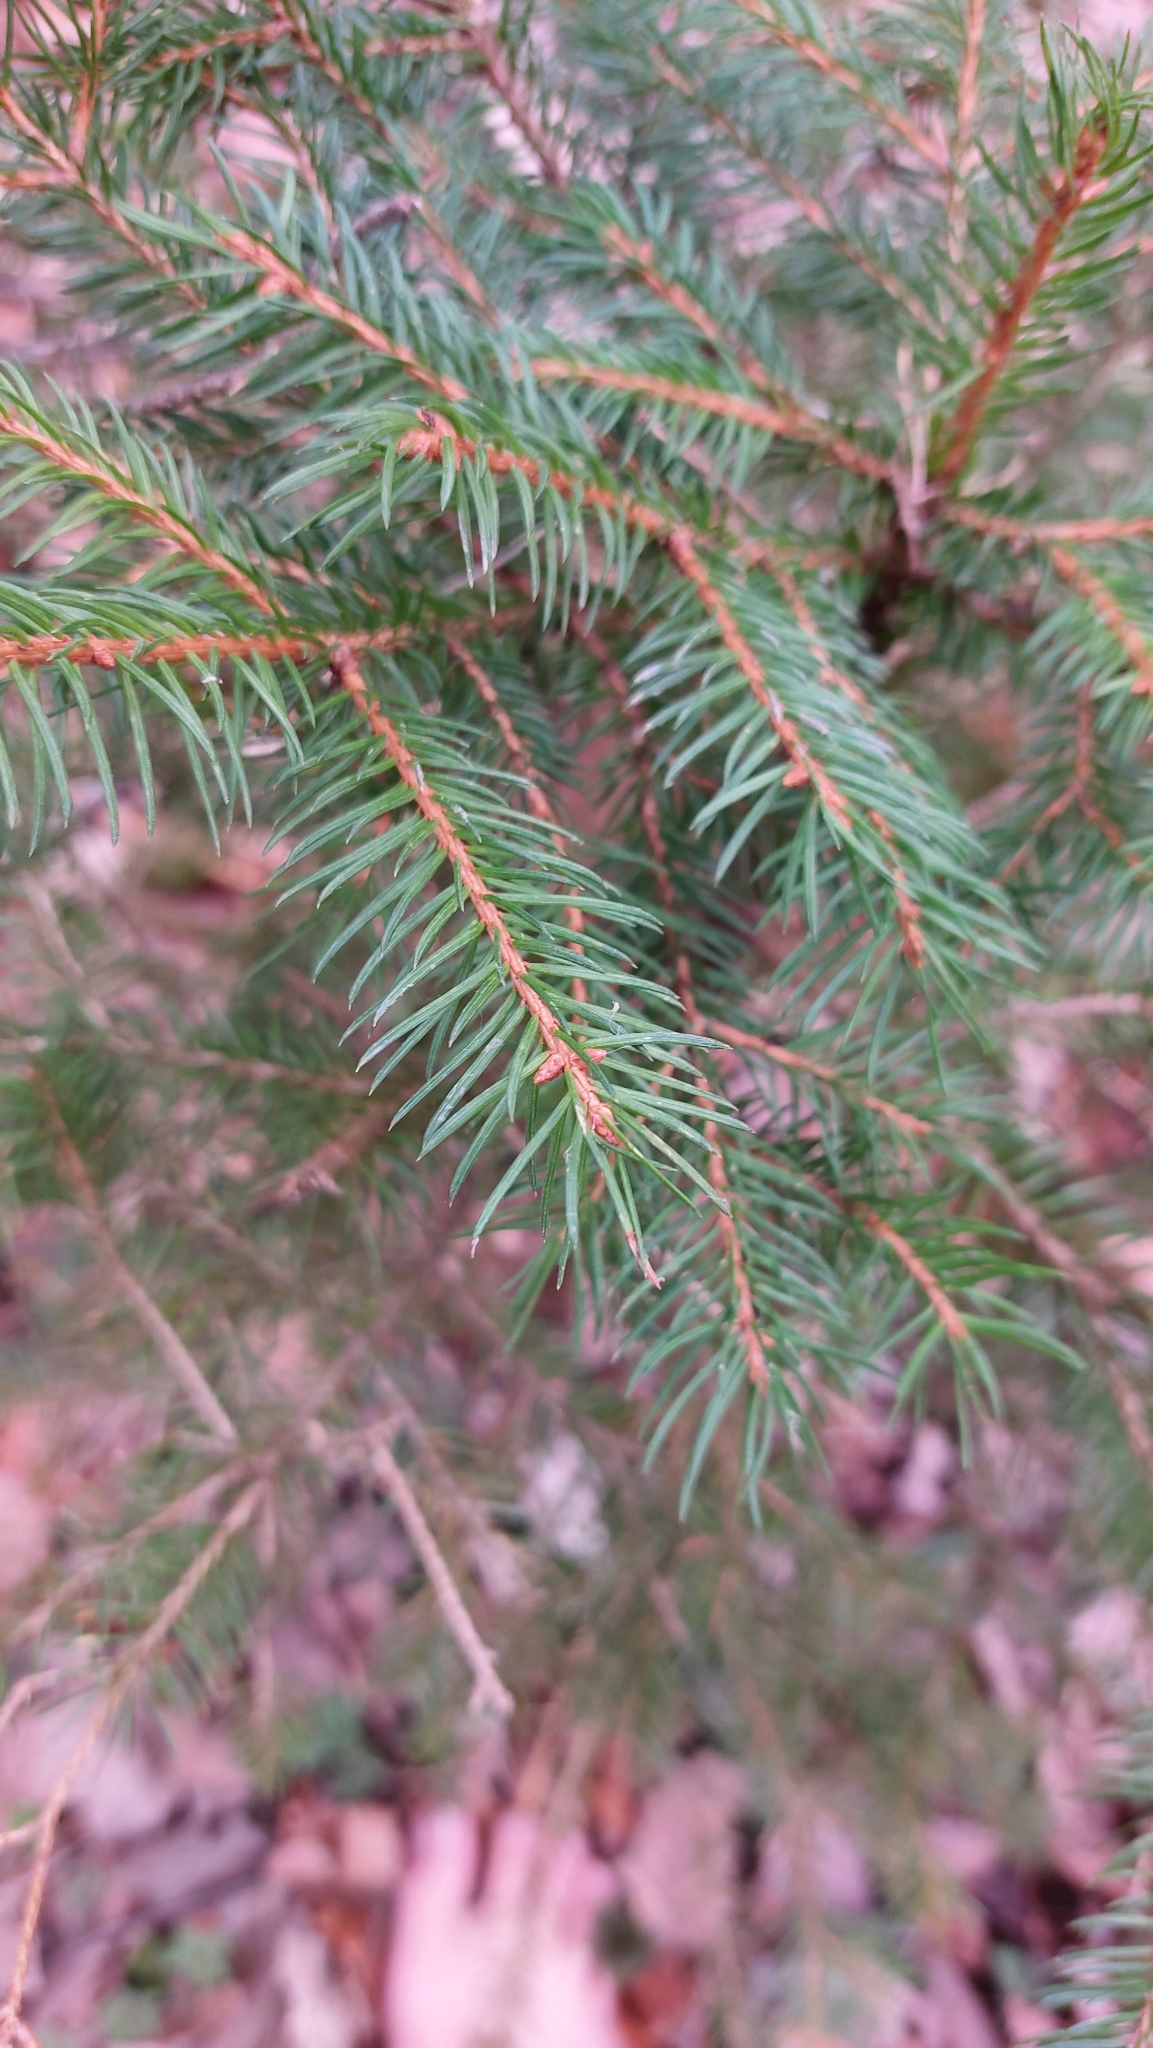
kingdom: Plantae
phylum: Tracheophyta
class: Pinopsida
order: Pinales
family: Pinaceae
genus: Picea
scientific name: Picea abies
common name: Norway spruce
